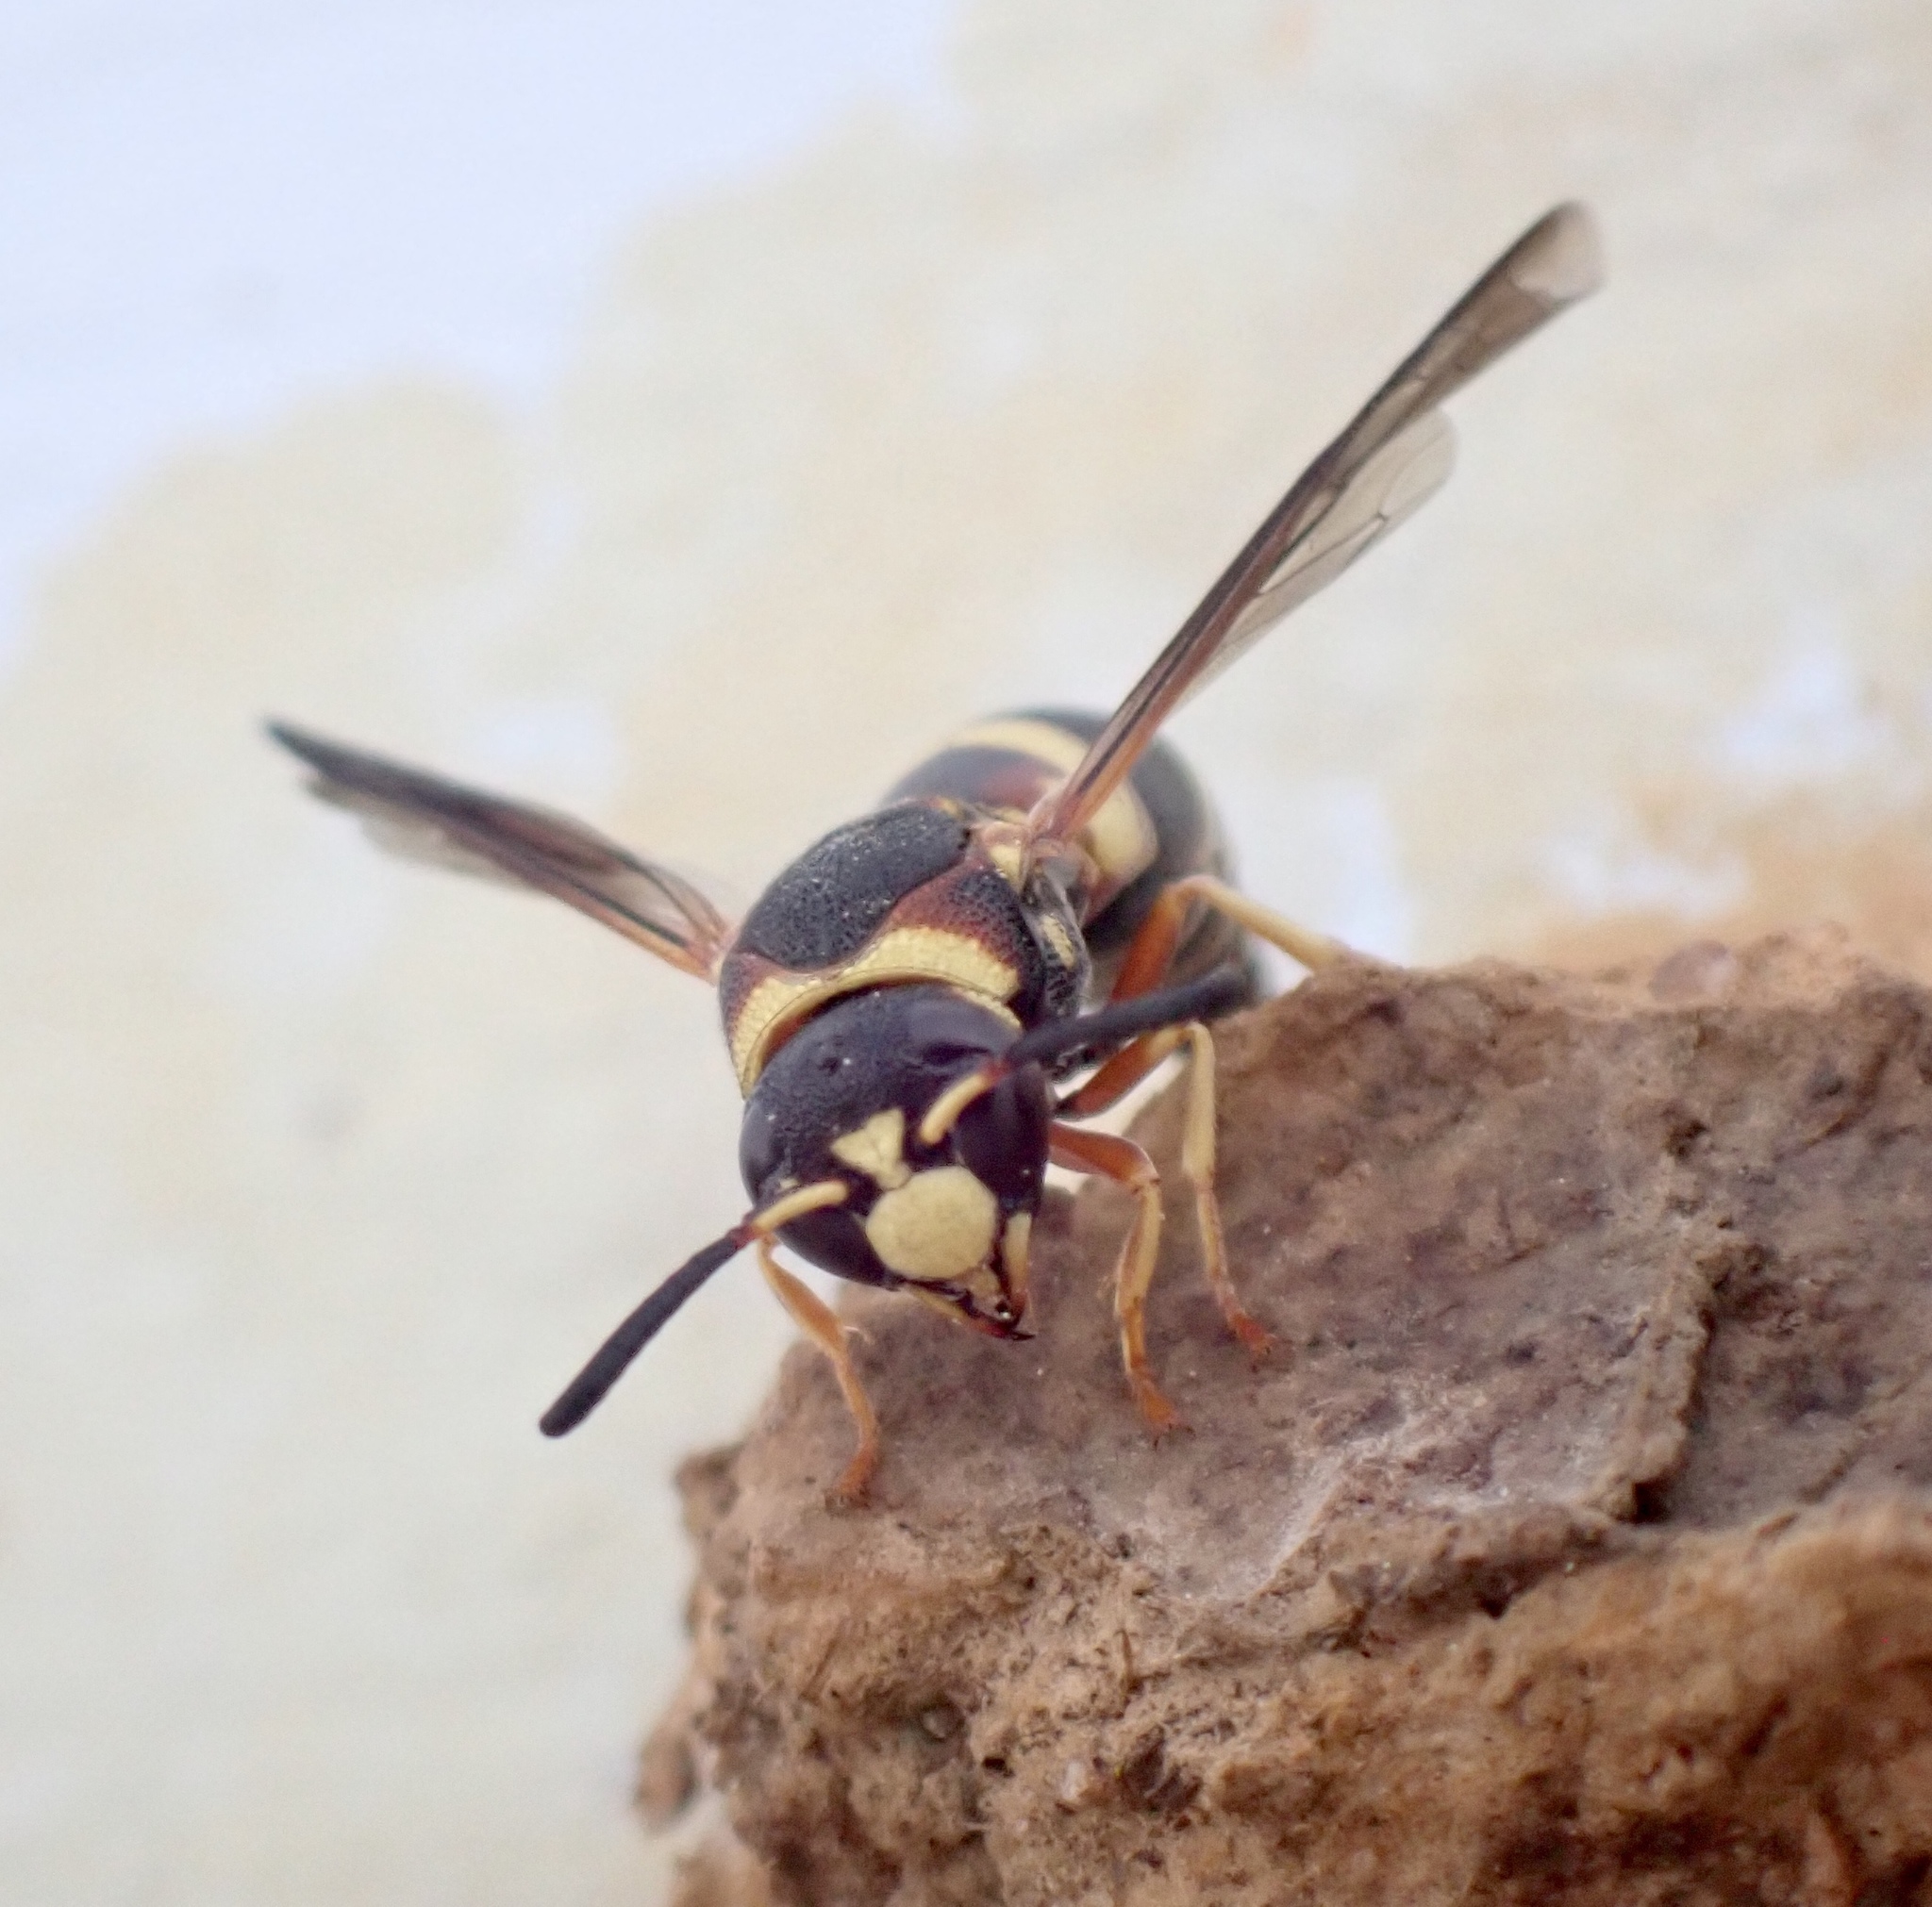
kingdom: Animalia
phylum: Arthropoda
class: Insecta
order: Hymenoptera
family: Eumenidae
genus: Euodynerus
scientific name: Euodynerus hidalgo
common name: Wasp
